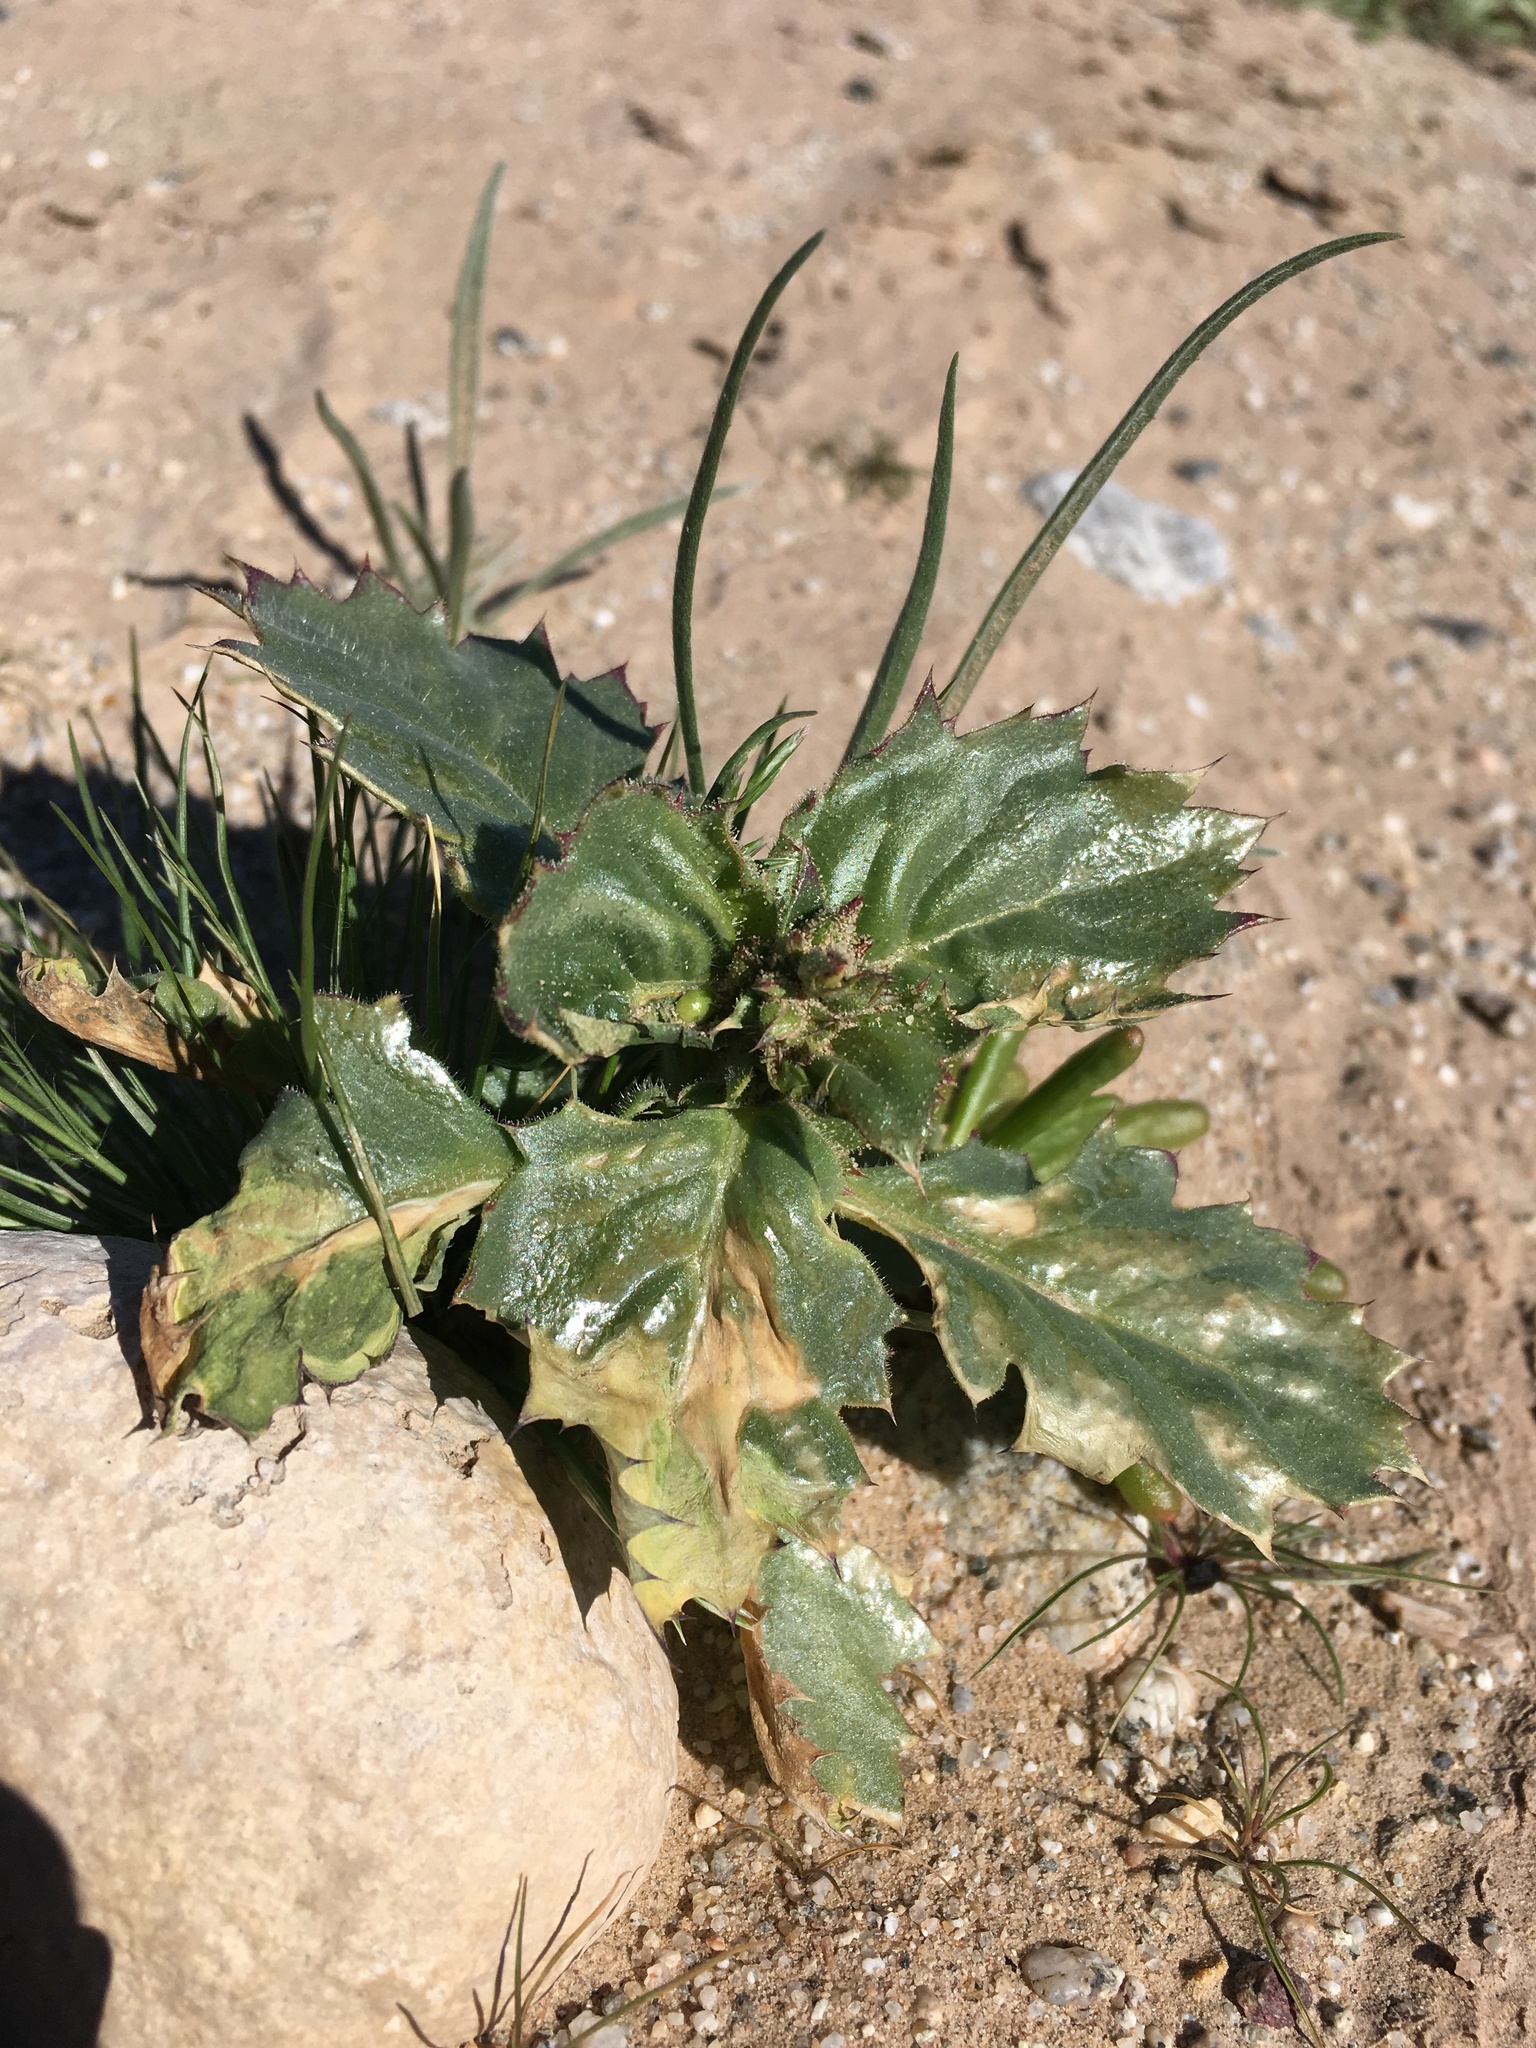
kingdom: Plantae
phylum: Tracheophyta
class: Magnoliopsida
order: Ericales
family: Polemoniaceae
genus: Aliciella
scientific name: Aliciella latifolia
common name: Broad-leaf gilia
